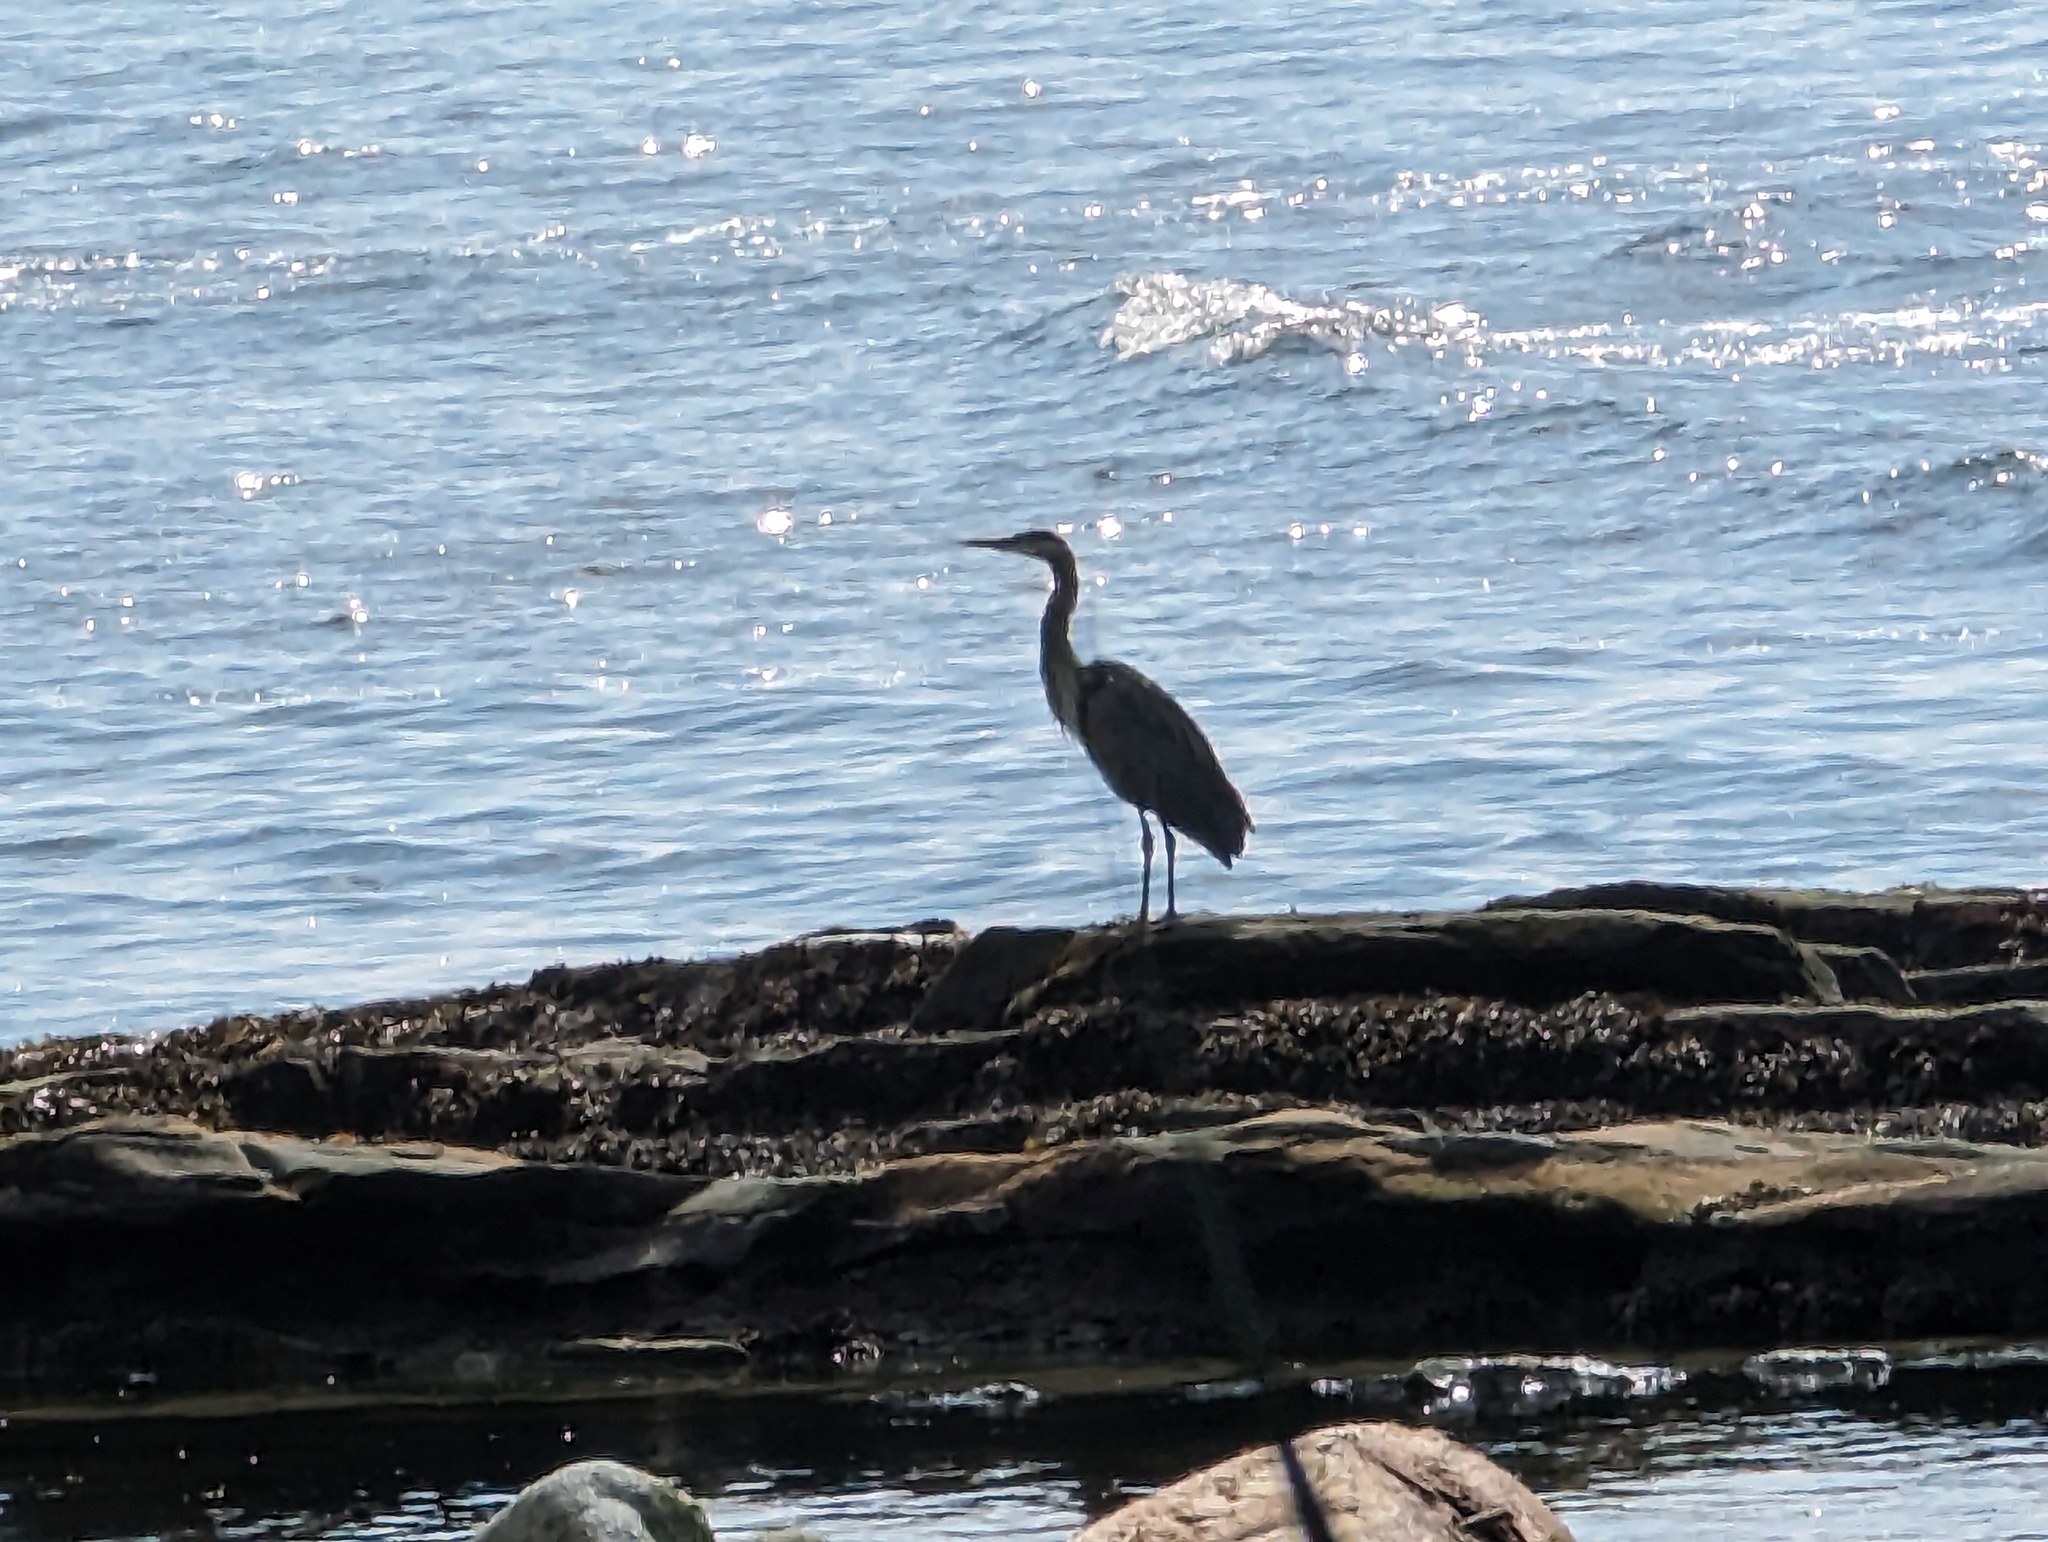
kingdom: Animalia
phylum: Chordata
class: Aves
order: Pelecaniformes
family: Ardeidae
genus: Ardea
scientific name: Ardea herodias
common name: Great blue heron
